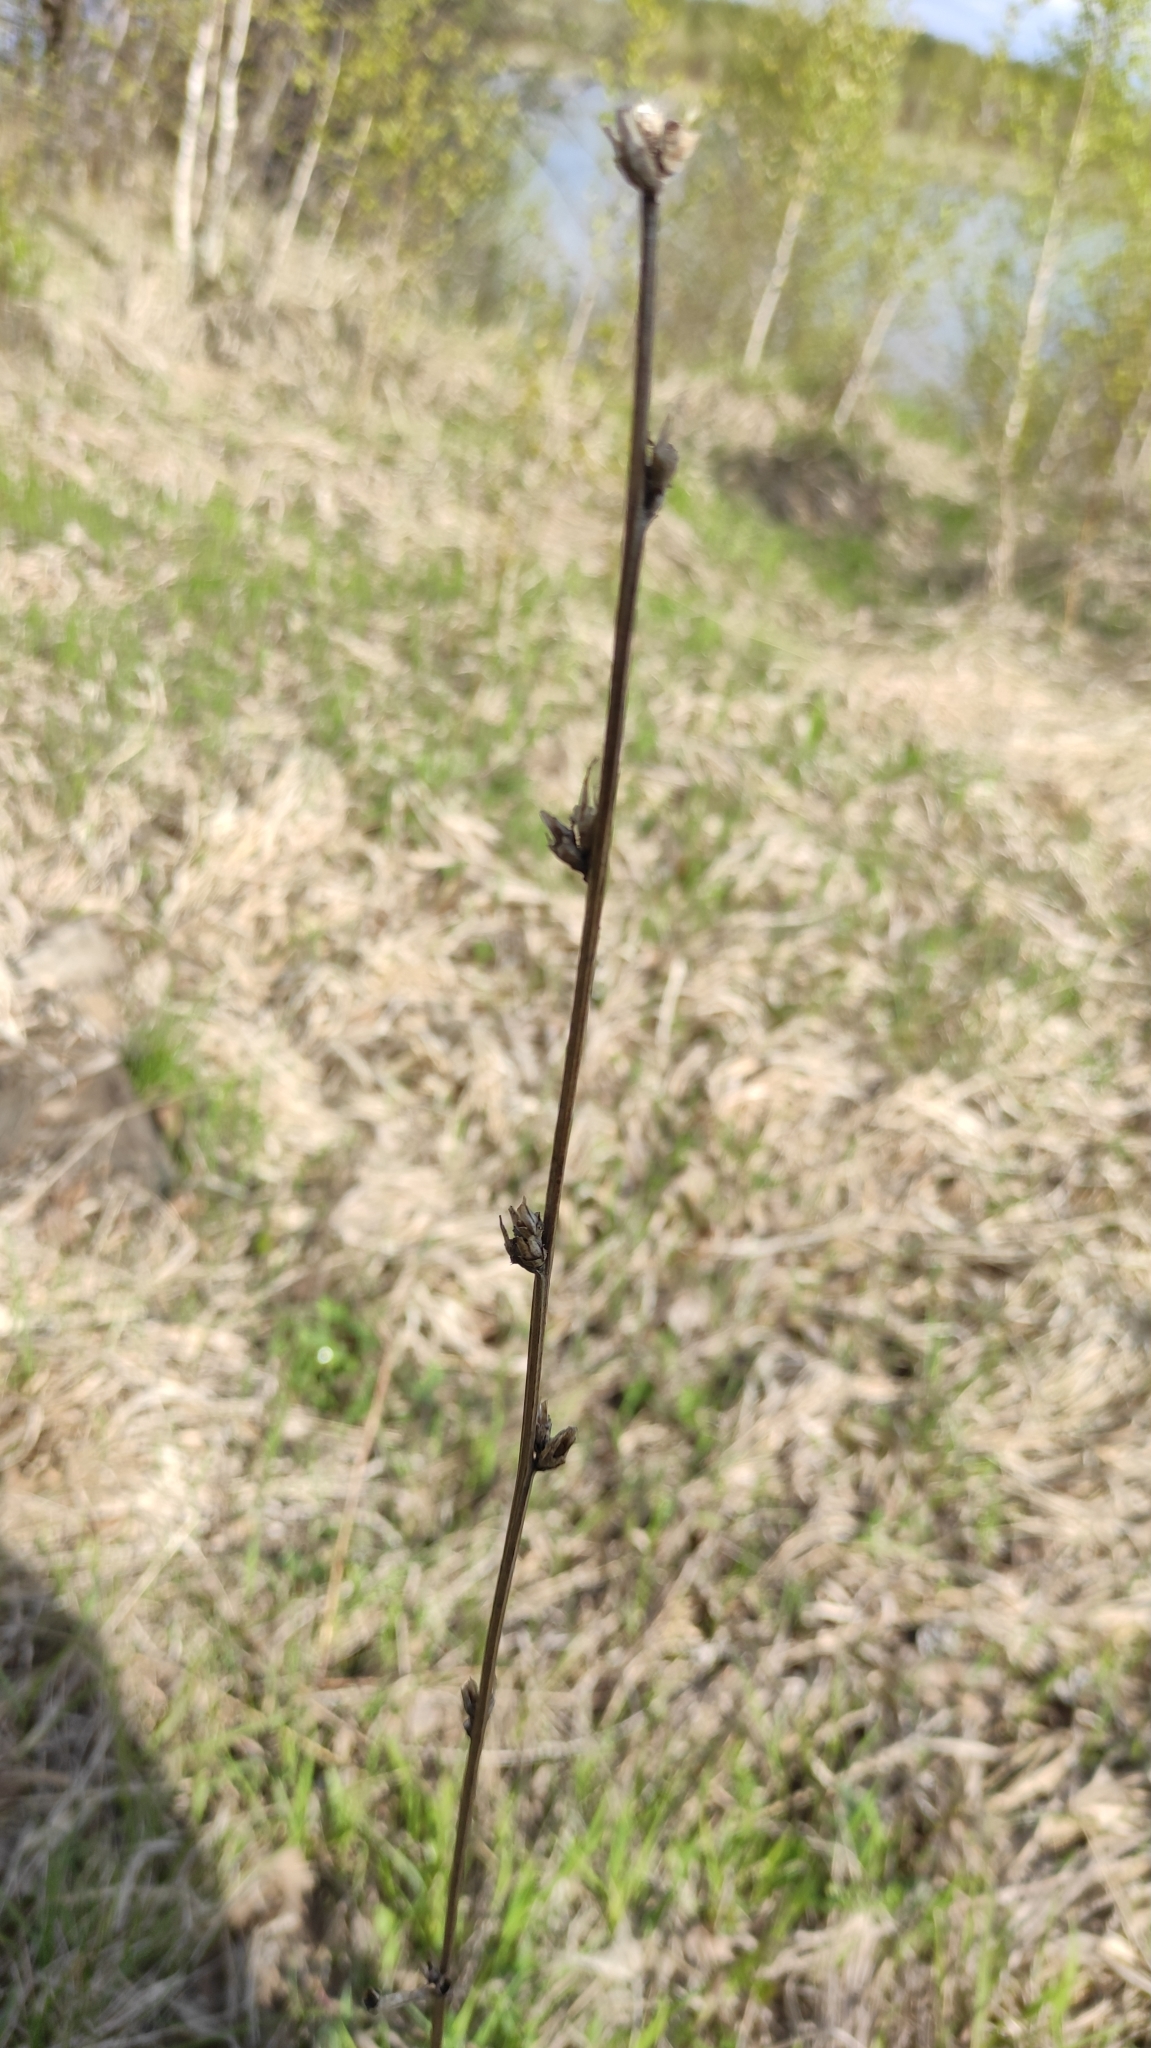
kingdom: Plantae
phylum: Tracheophyta
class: Magnoliopsida
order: Asterales
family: Asteraceae
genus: Cichorium
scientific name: Cichorium intybus
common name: Chicory
